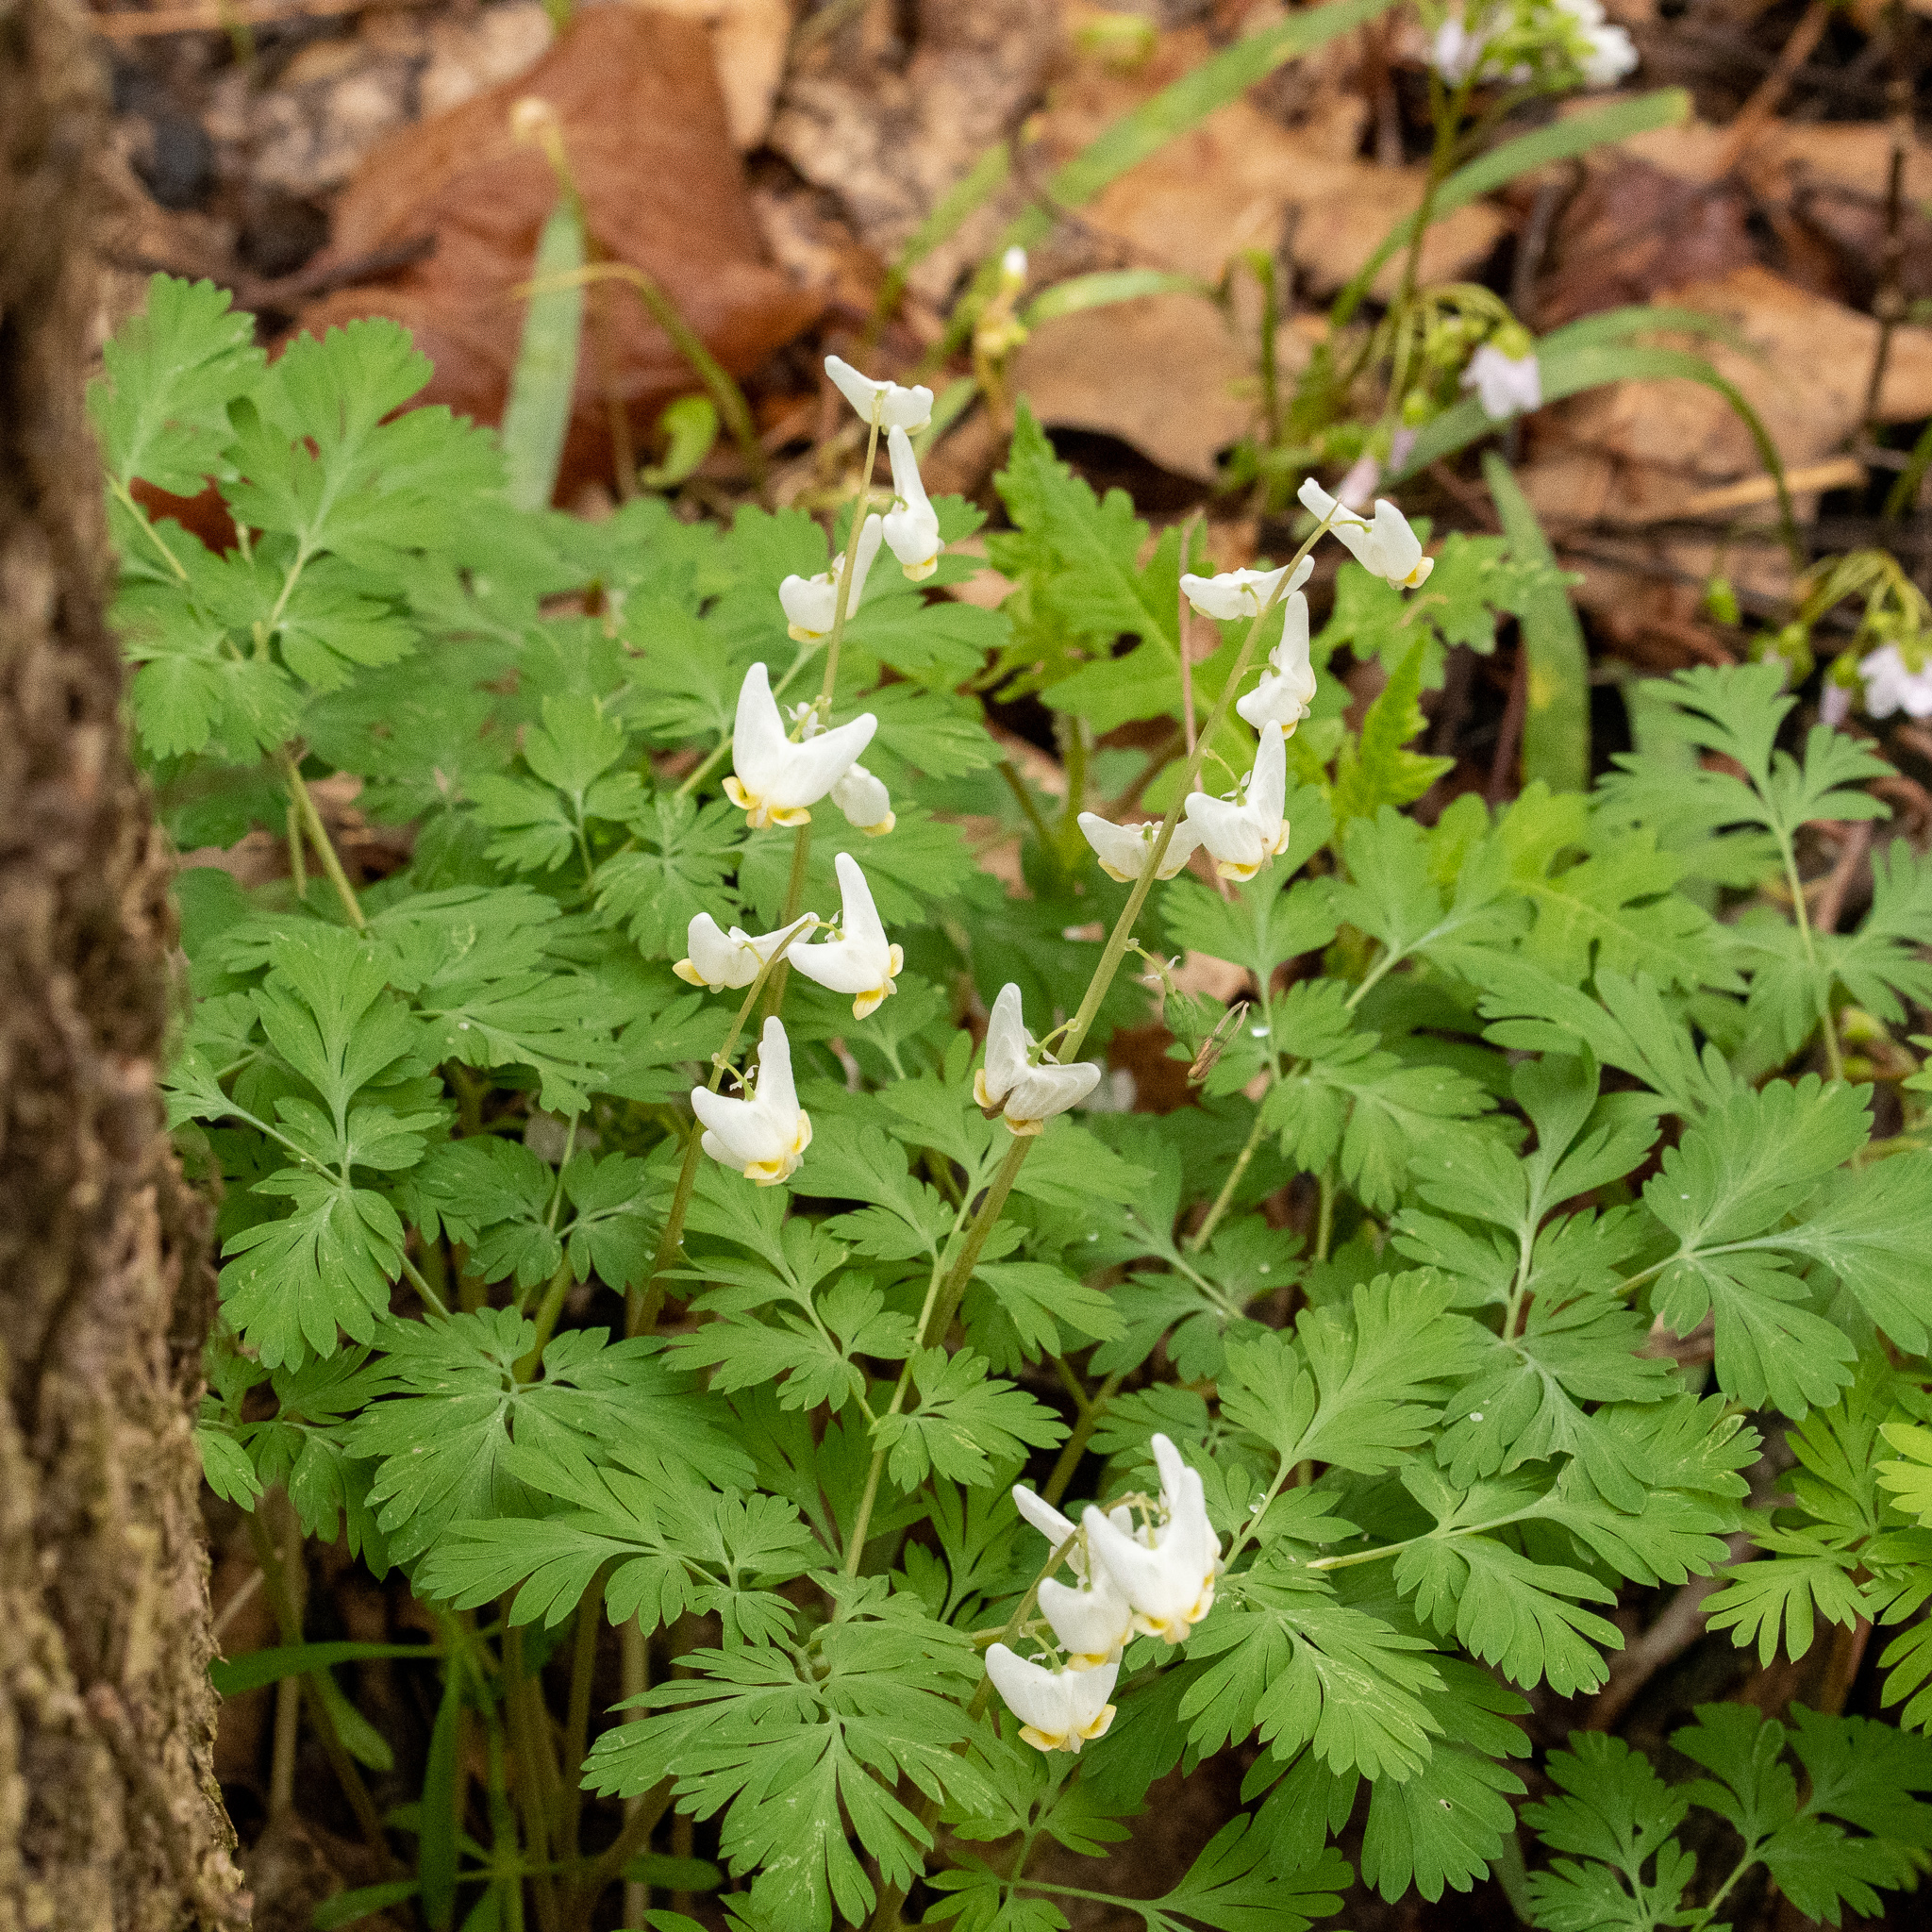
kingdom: Plantae
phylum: Tracheophyta
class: Magnoliopsida
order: Ranunculales
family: Papaveraceae
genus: Dicentra
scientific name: Dicentra cucullaria
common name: Dutchman's breeches
